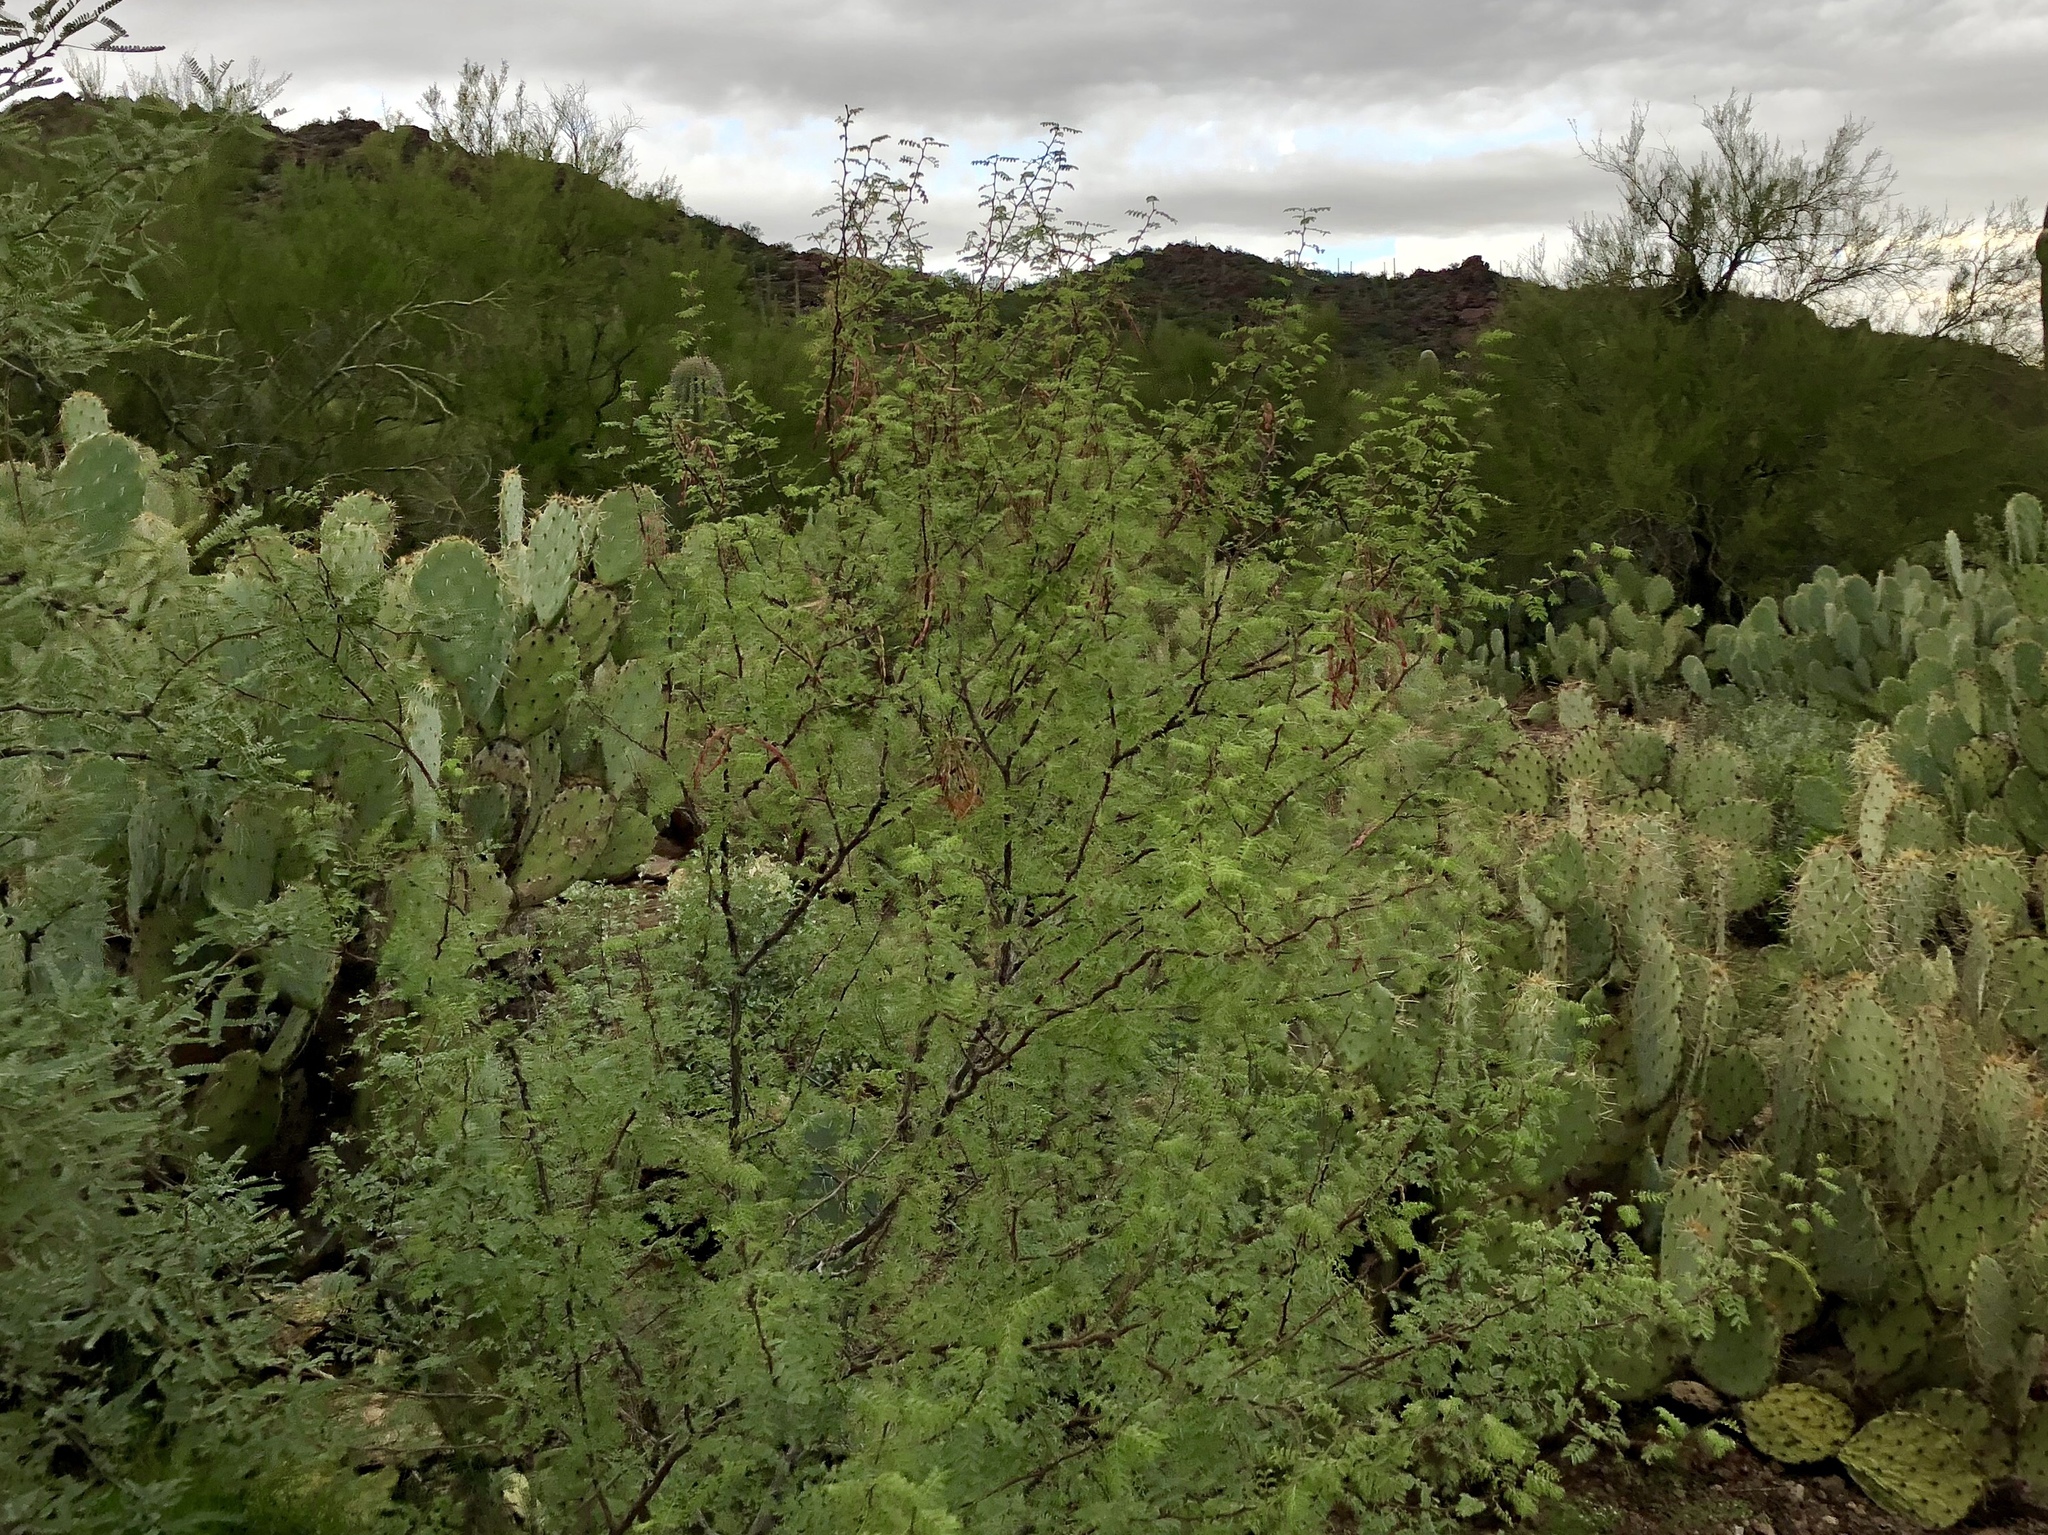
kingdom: Plantae
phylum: Tracheophyta
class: Magnoliopsida
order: Fabales
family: Fabaceae
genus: Vachellia
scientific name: Vachellia constricta
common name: Mescat acacia
